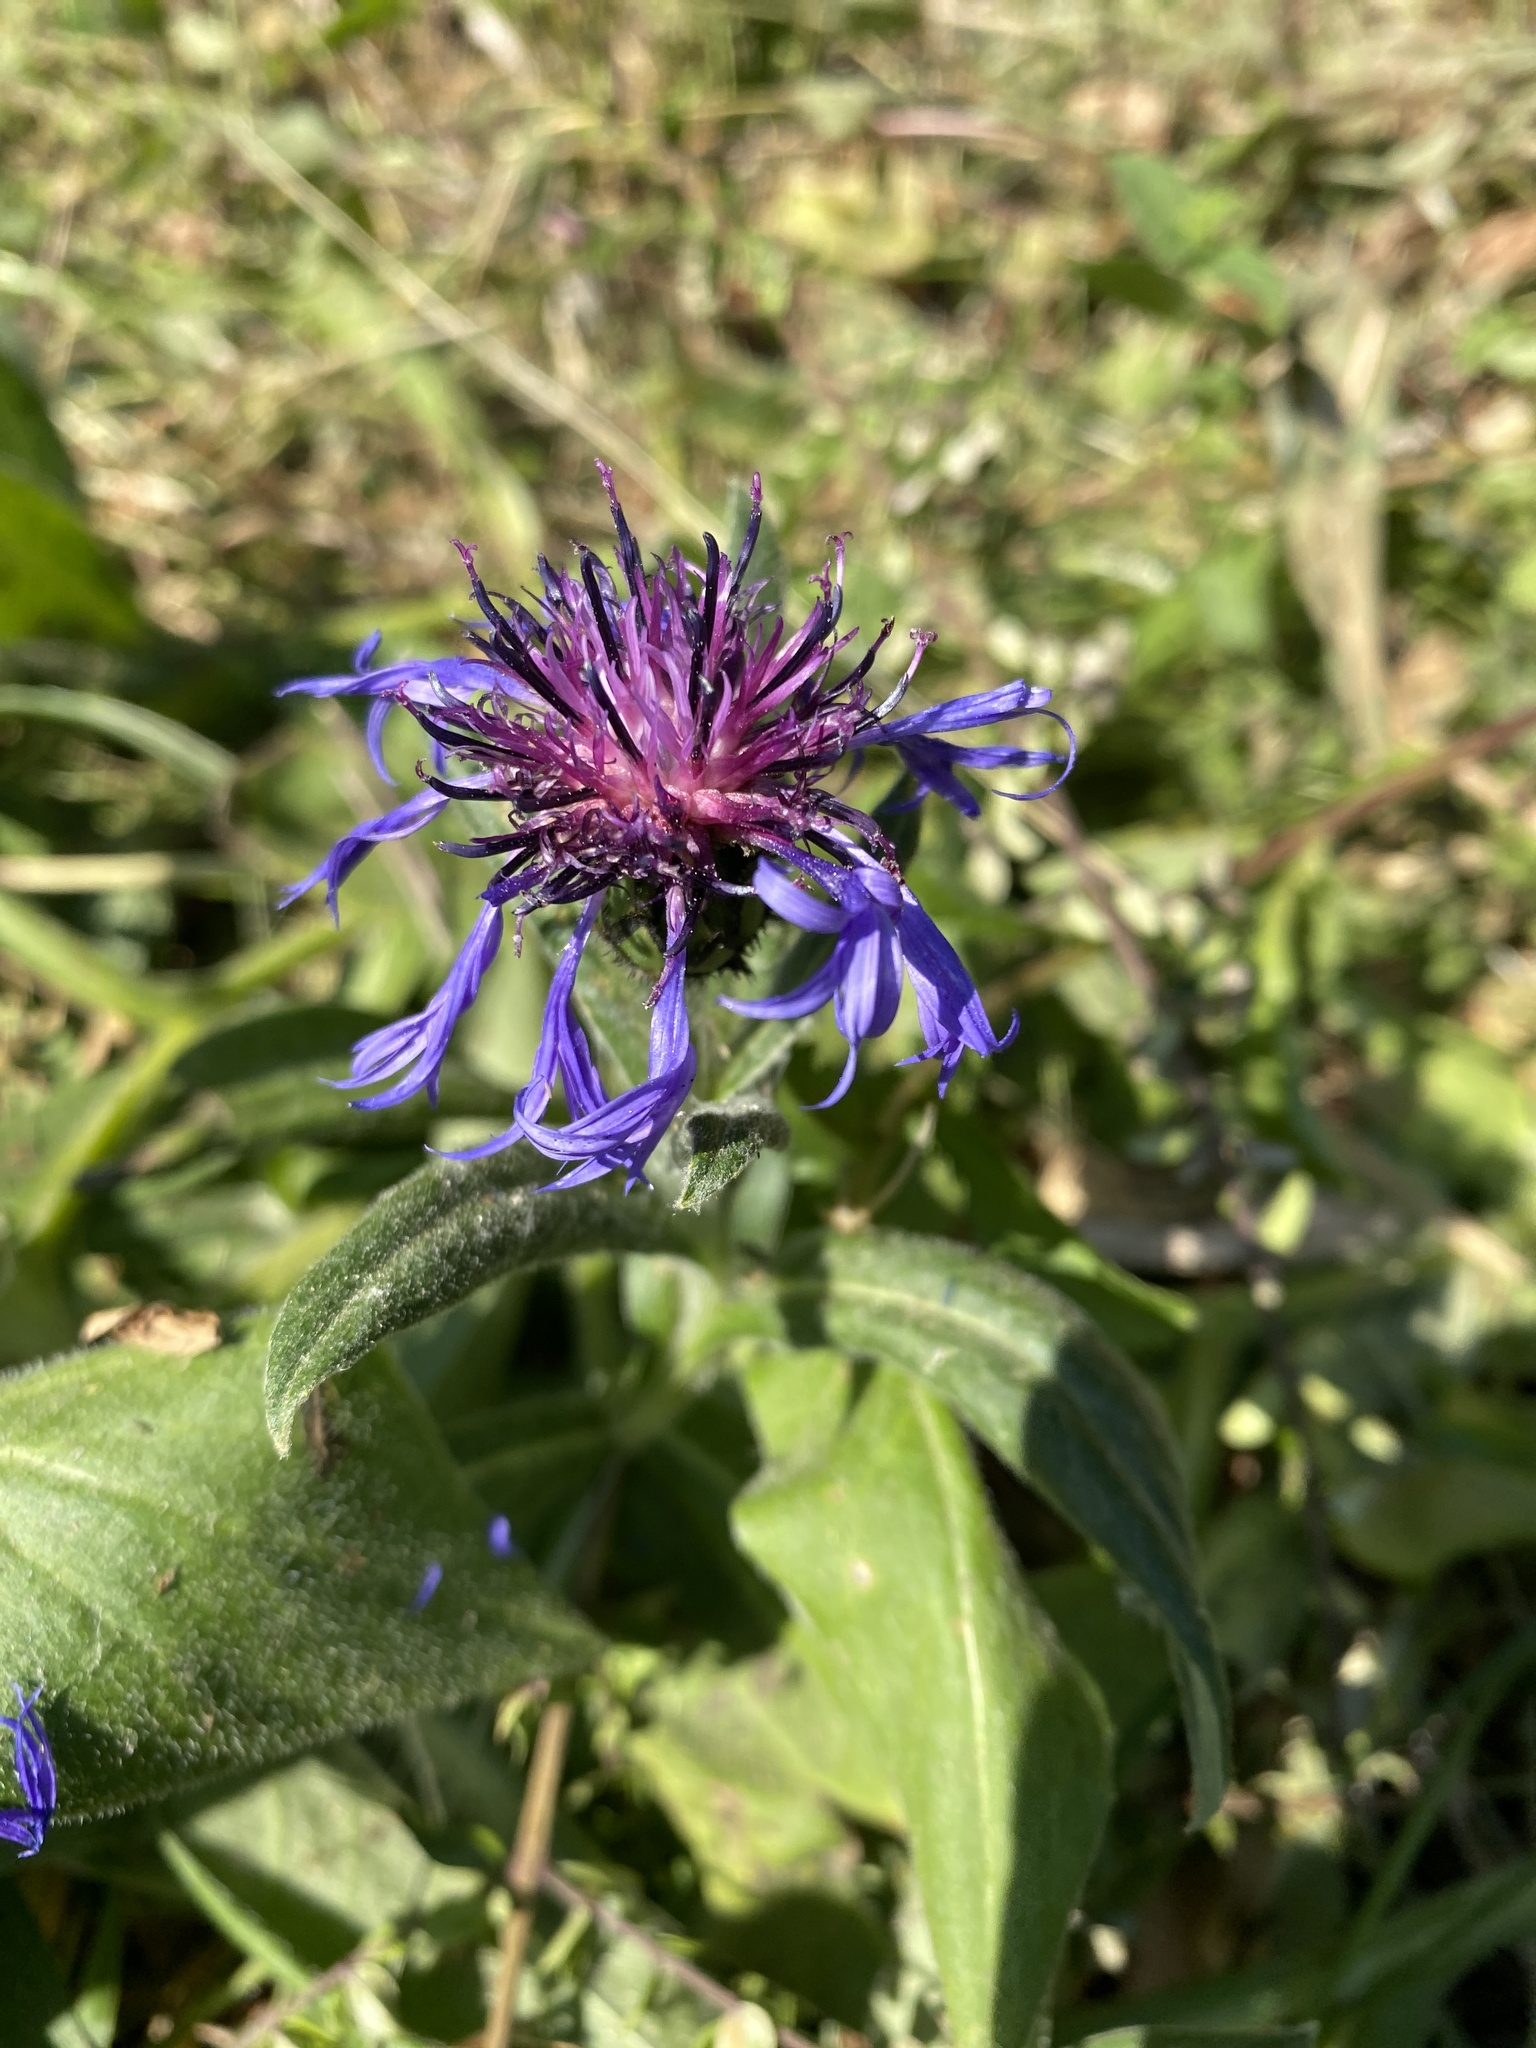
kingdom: Plantae
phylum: Tracheophyta
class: Magnoliopsida
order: Asterales
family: Asteraceae
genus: Centaurea
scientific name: Centaurea montana
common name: Perennial cornflower
